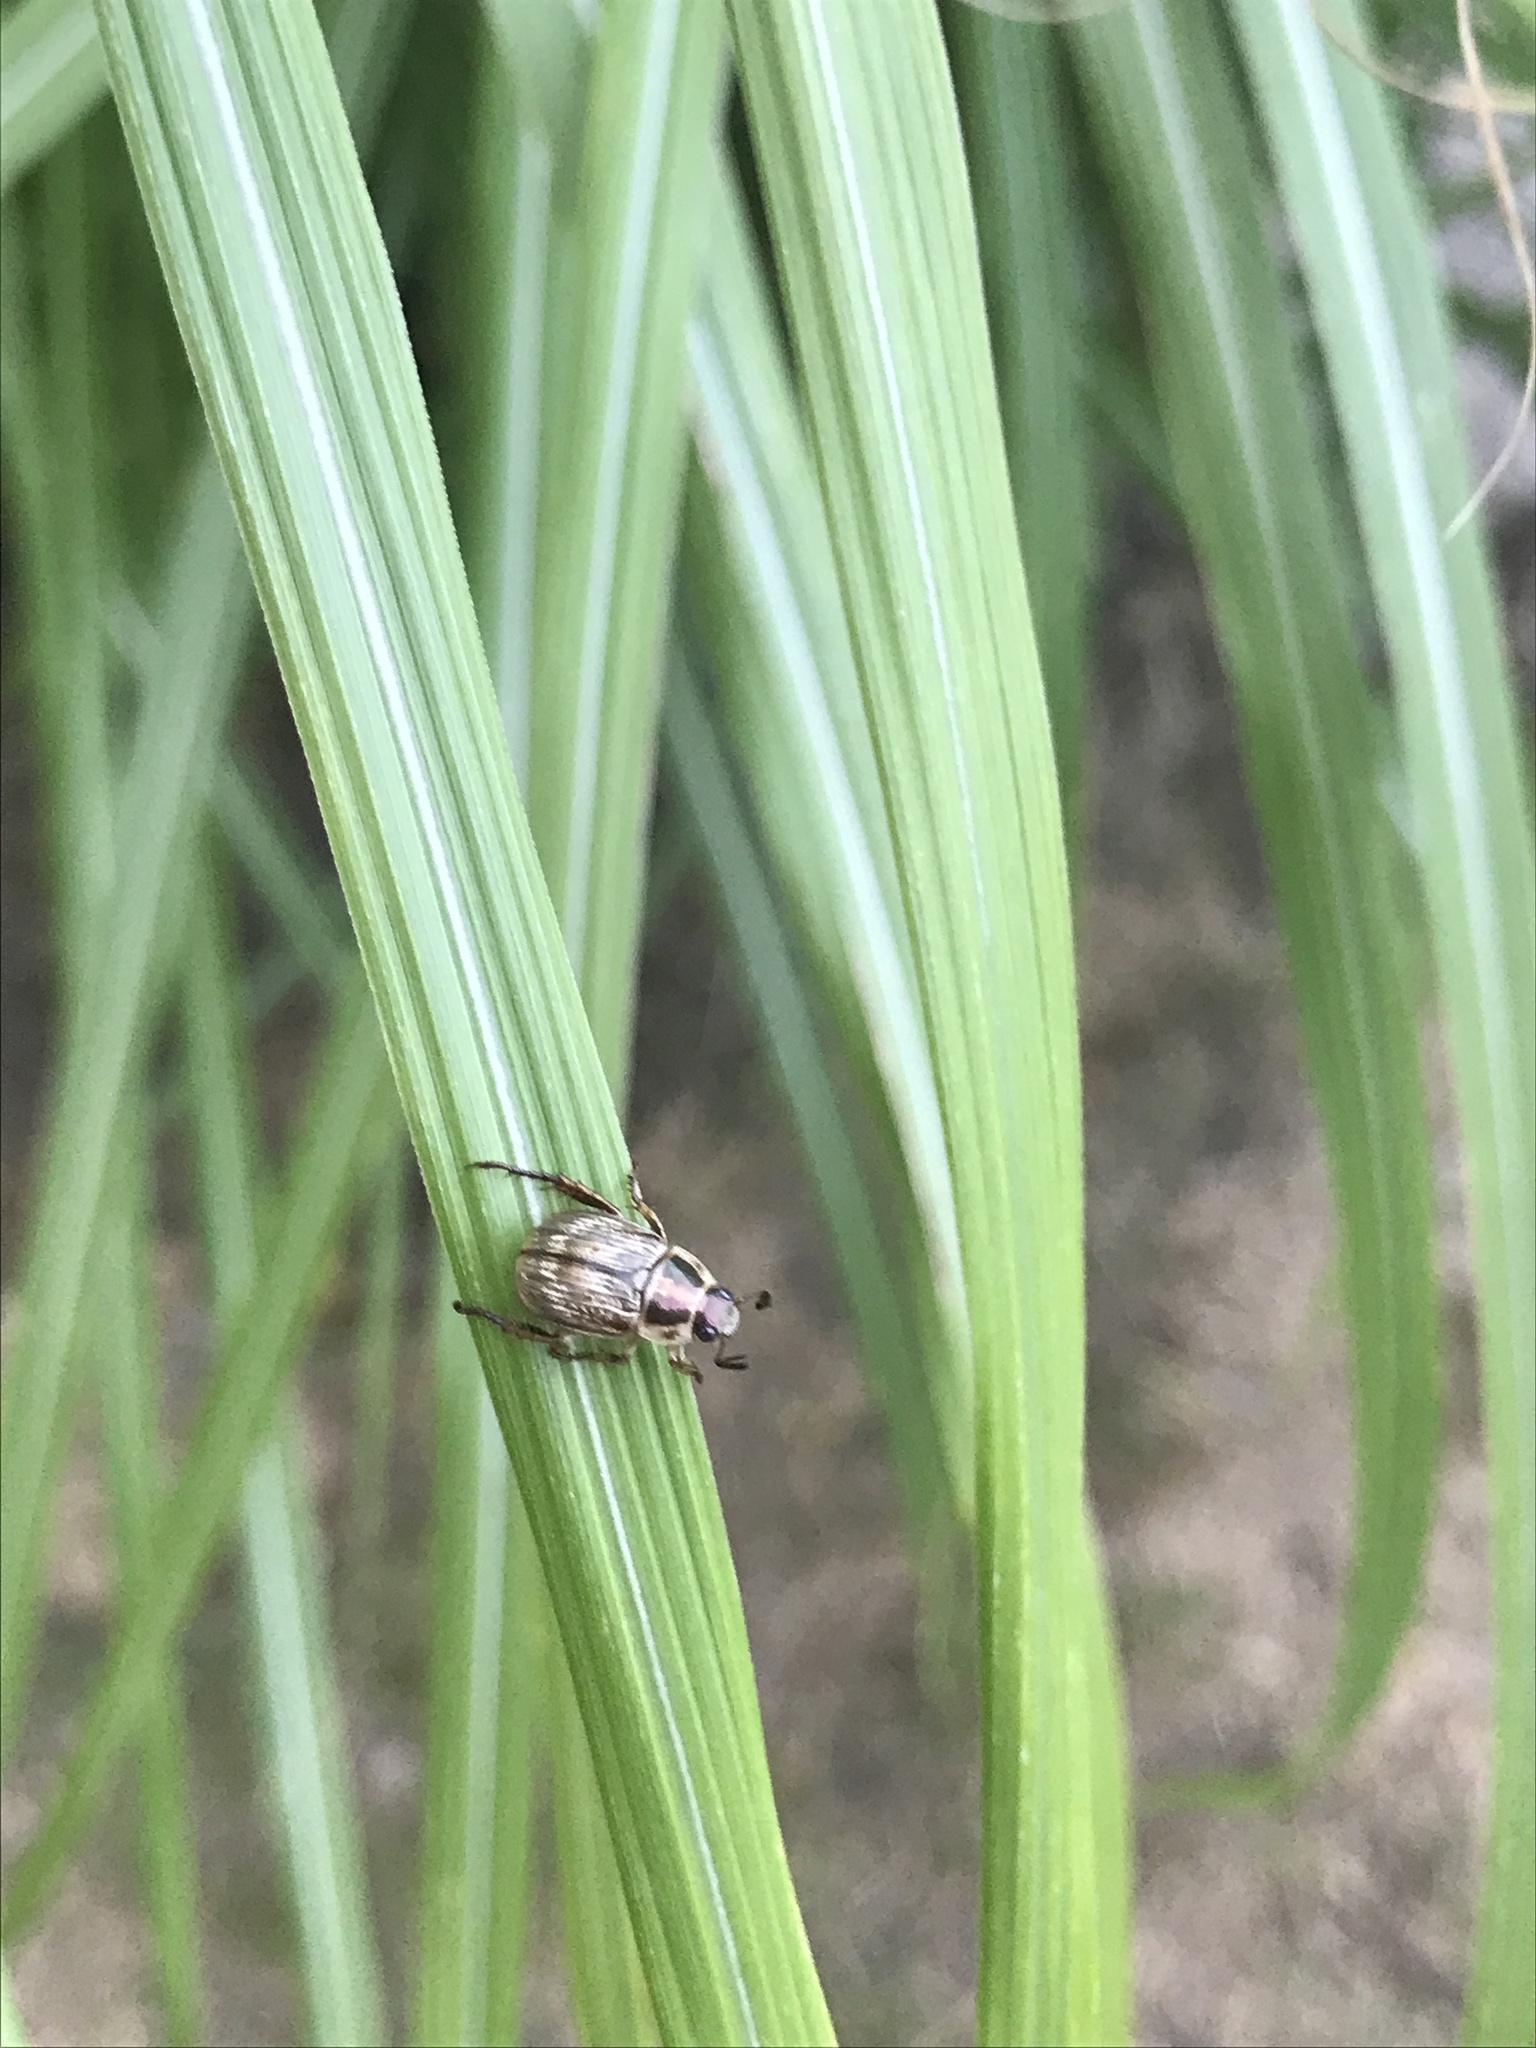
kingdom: Animalia
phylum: Arthropoda
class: Insecta
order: Coleoptera
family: Scarabaeidae
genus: Exomala
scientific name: Exomala orientalis
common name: Oriental beetle
